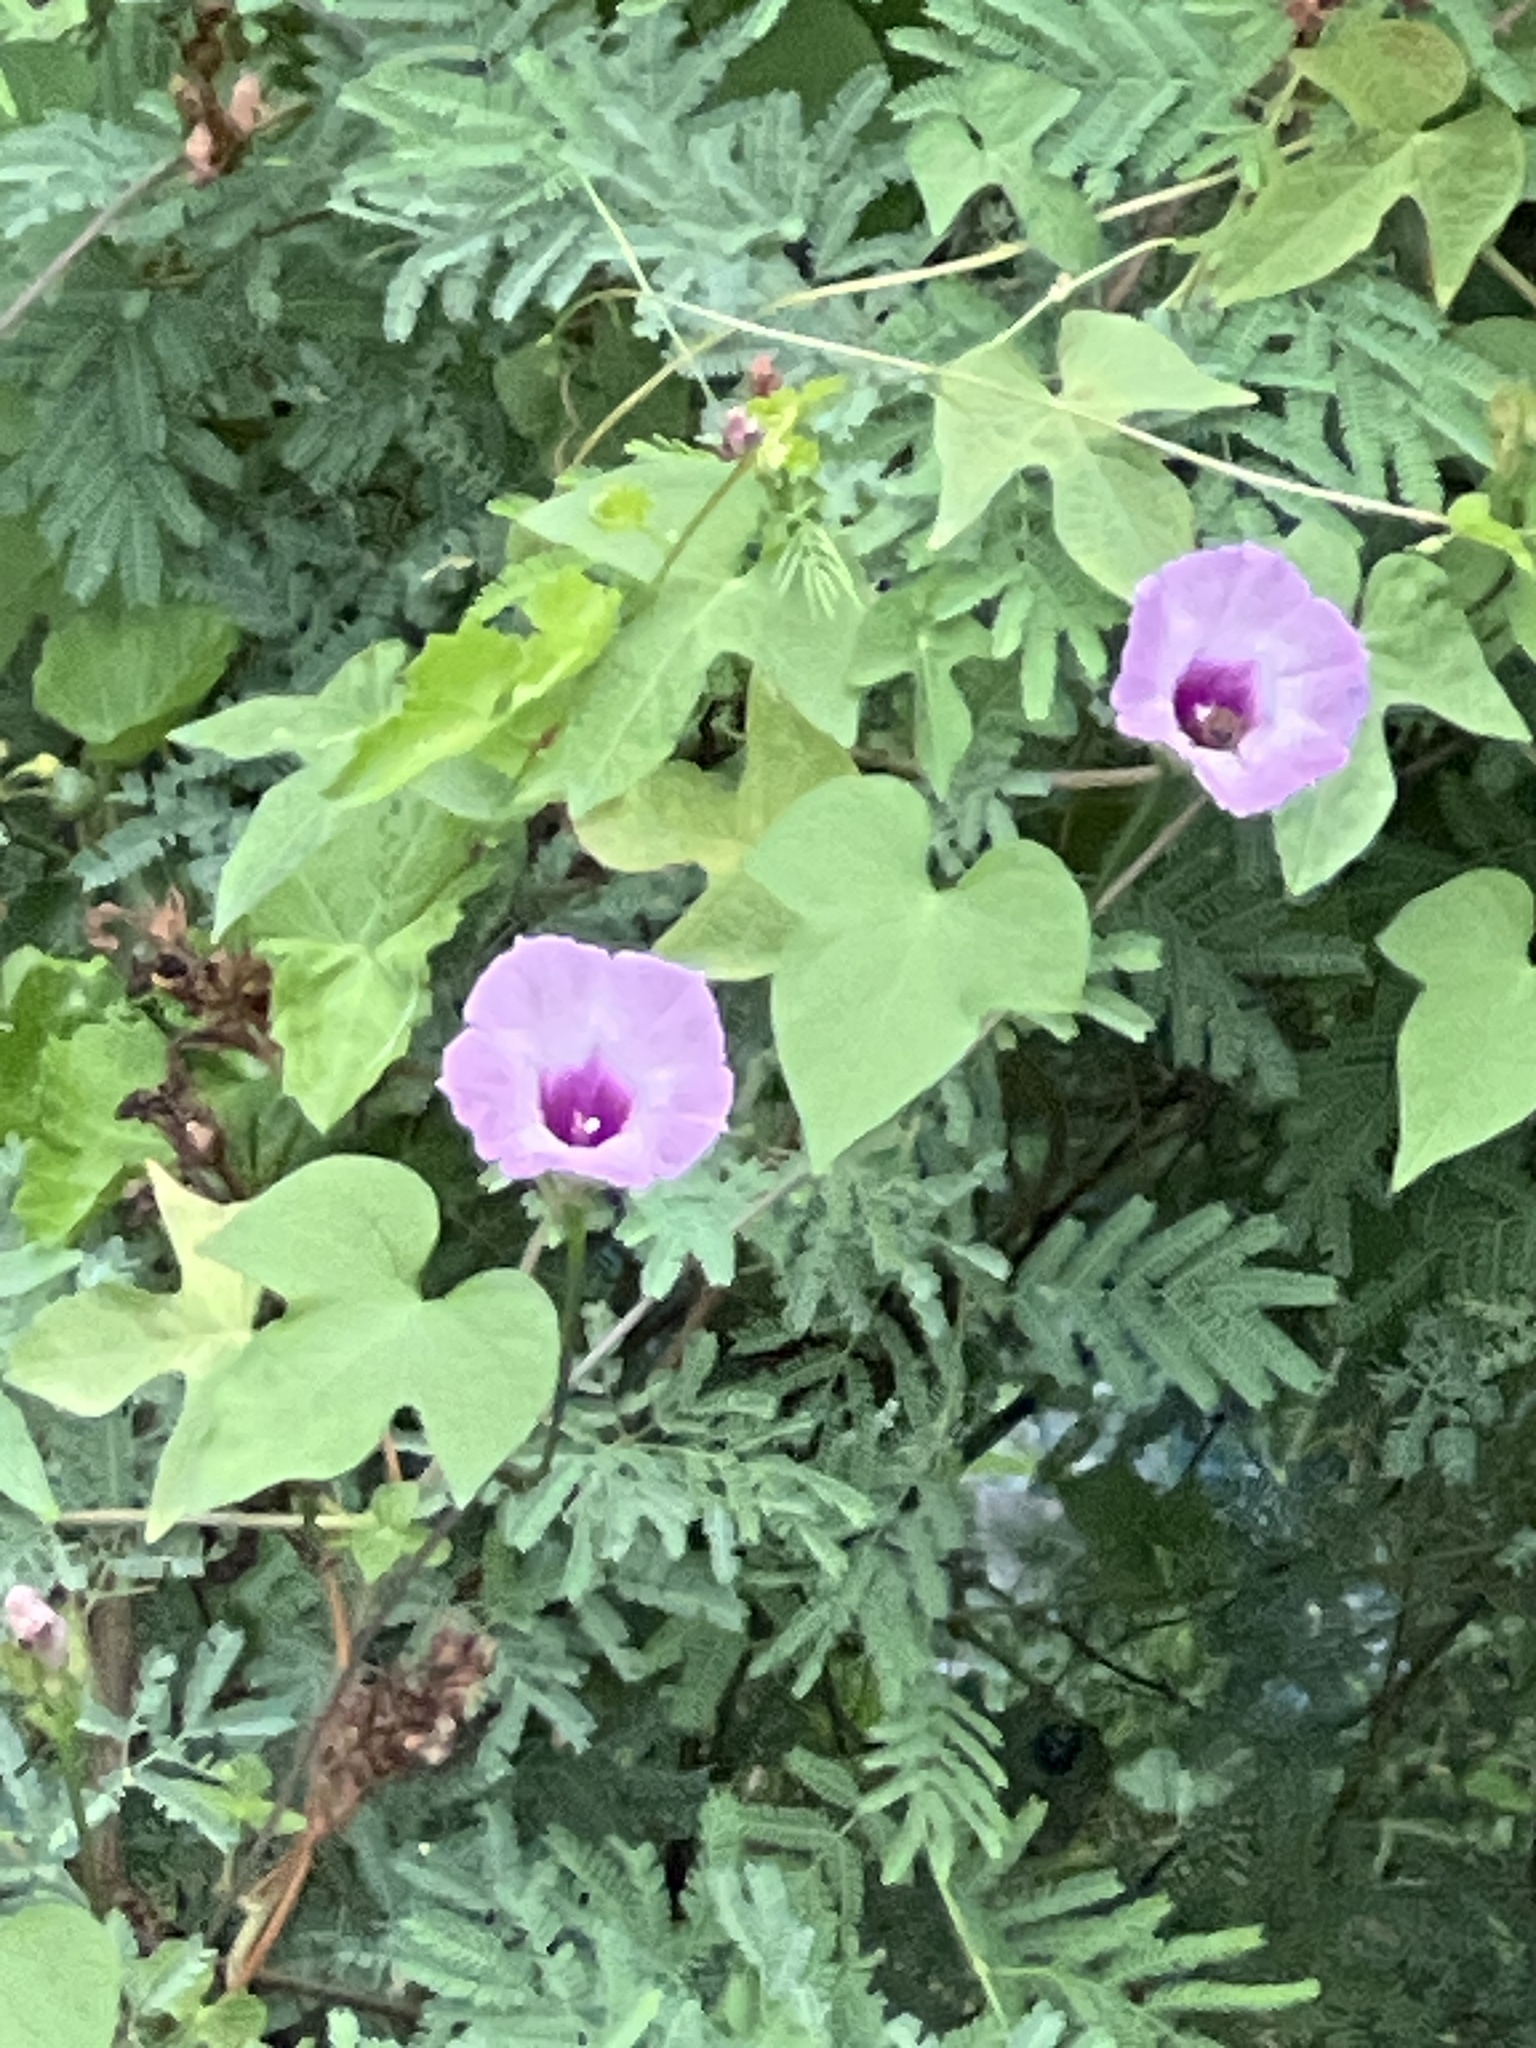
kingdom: Plantae
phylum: Tracheophyta
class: Magnoliopsida
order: Solanales
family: Convolvulaceae
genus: Ipomoea
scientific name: Ipomoea cordatotriloba
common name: Cotton morning glory
